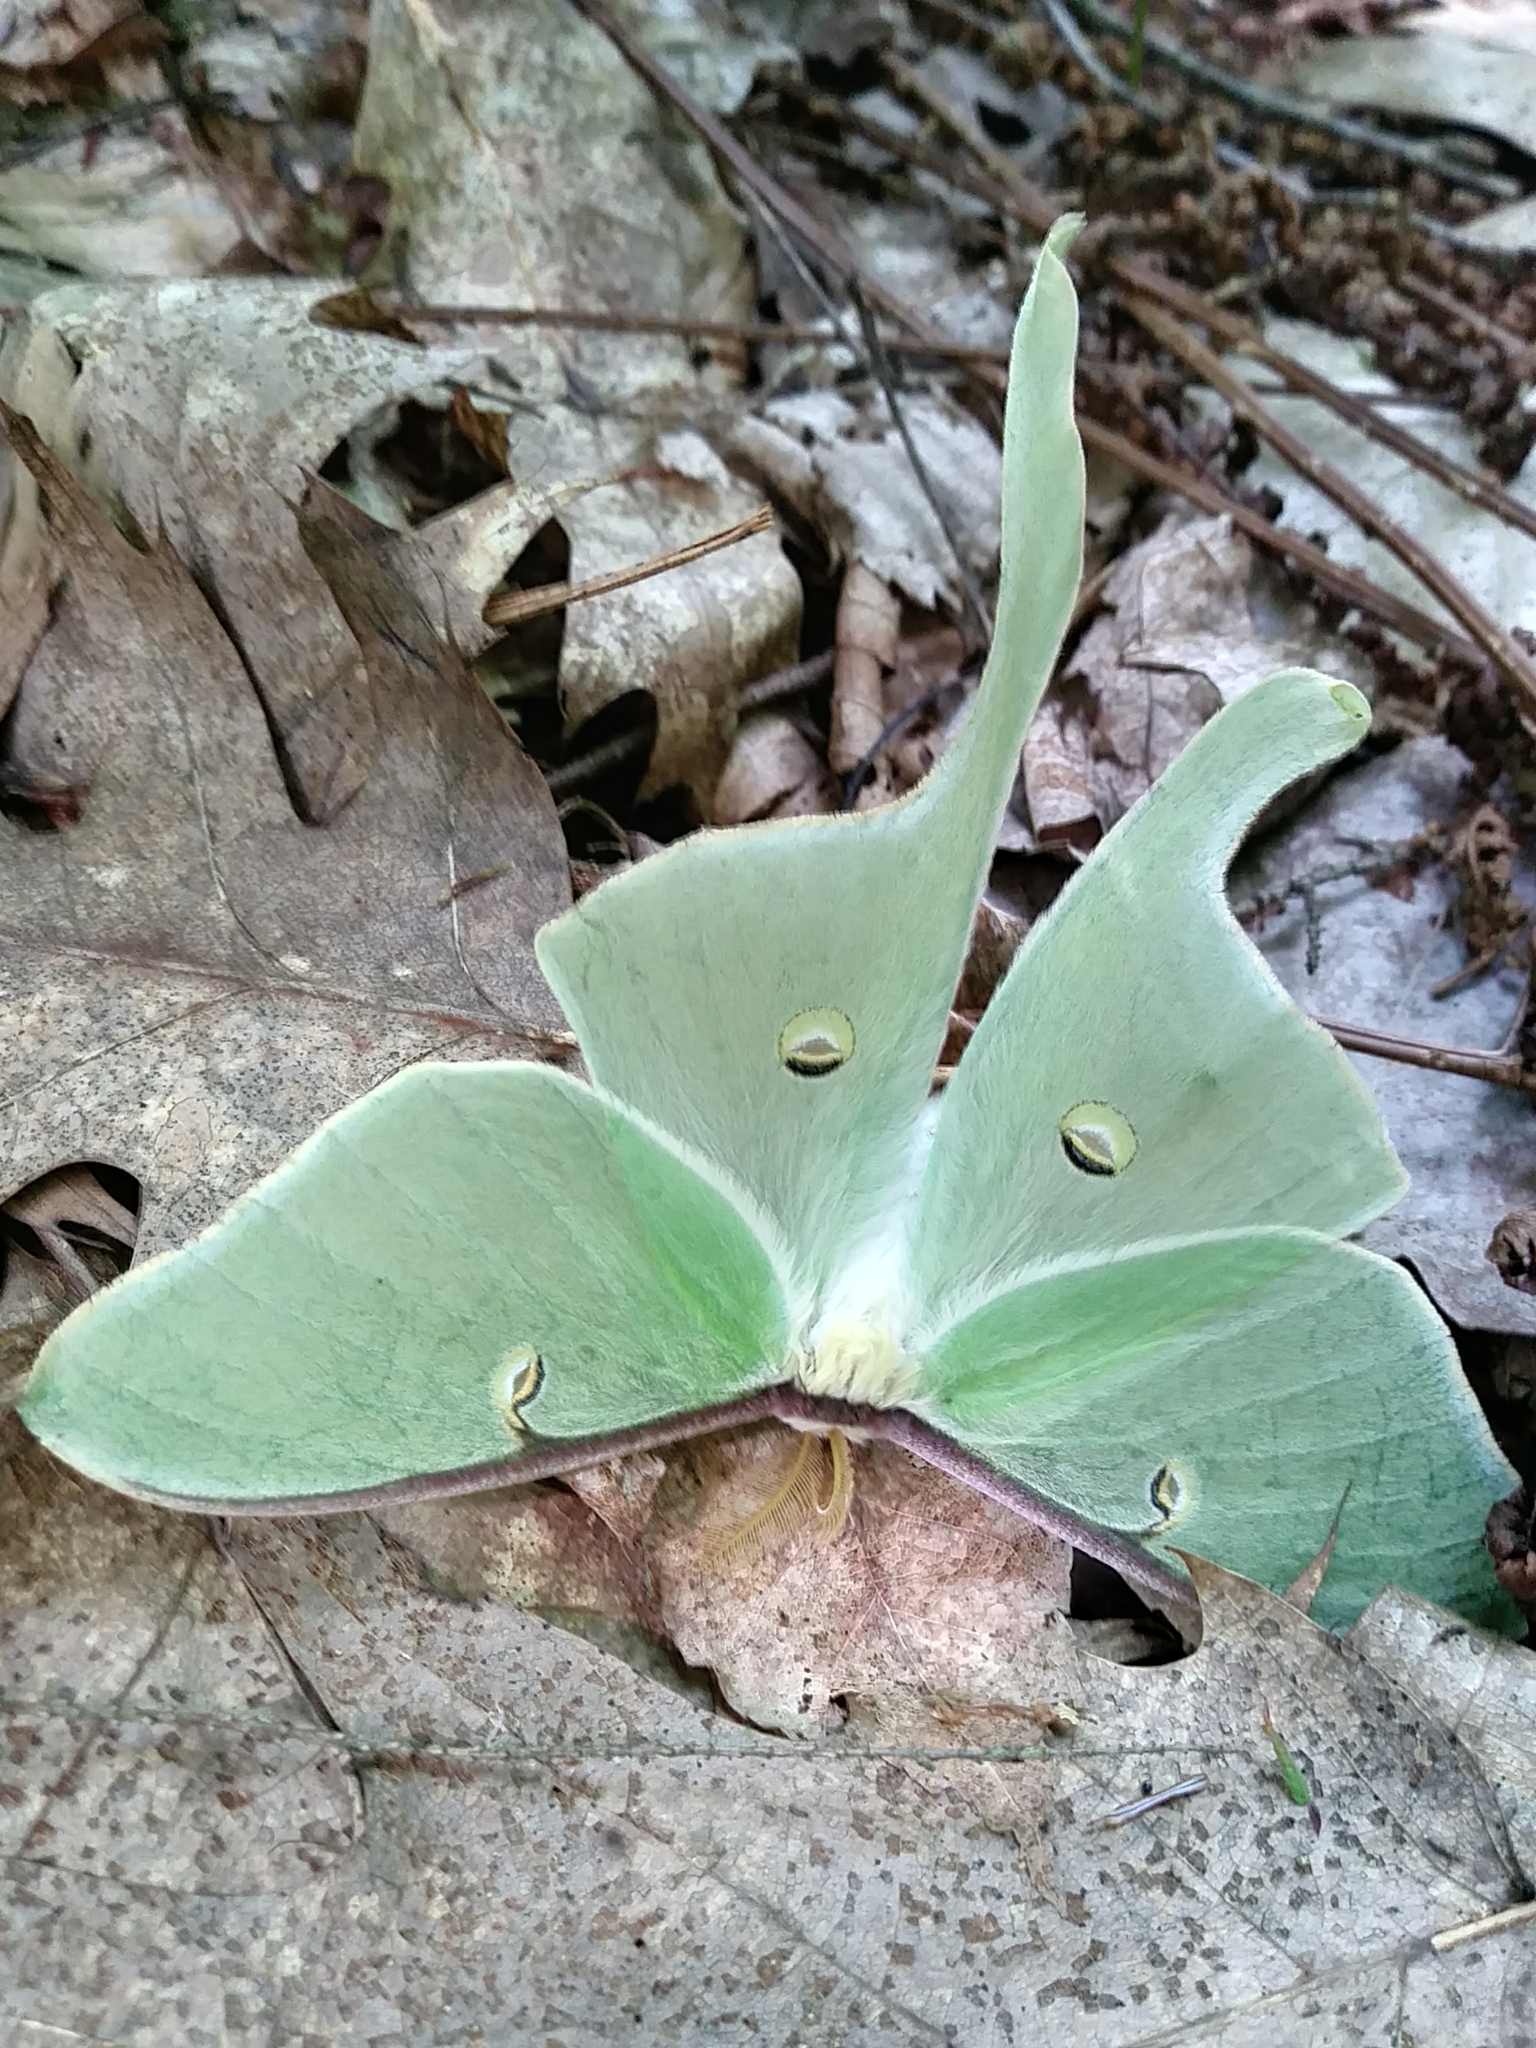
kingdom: Animalia
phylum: Arthropoda
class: Insecta
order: Lepidoptera
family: Saturniidae
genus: Actias
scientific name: Actias luna
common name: Luna moth
